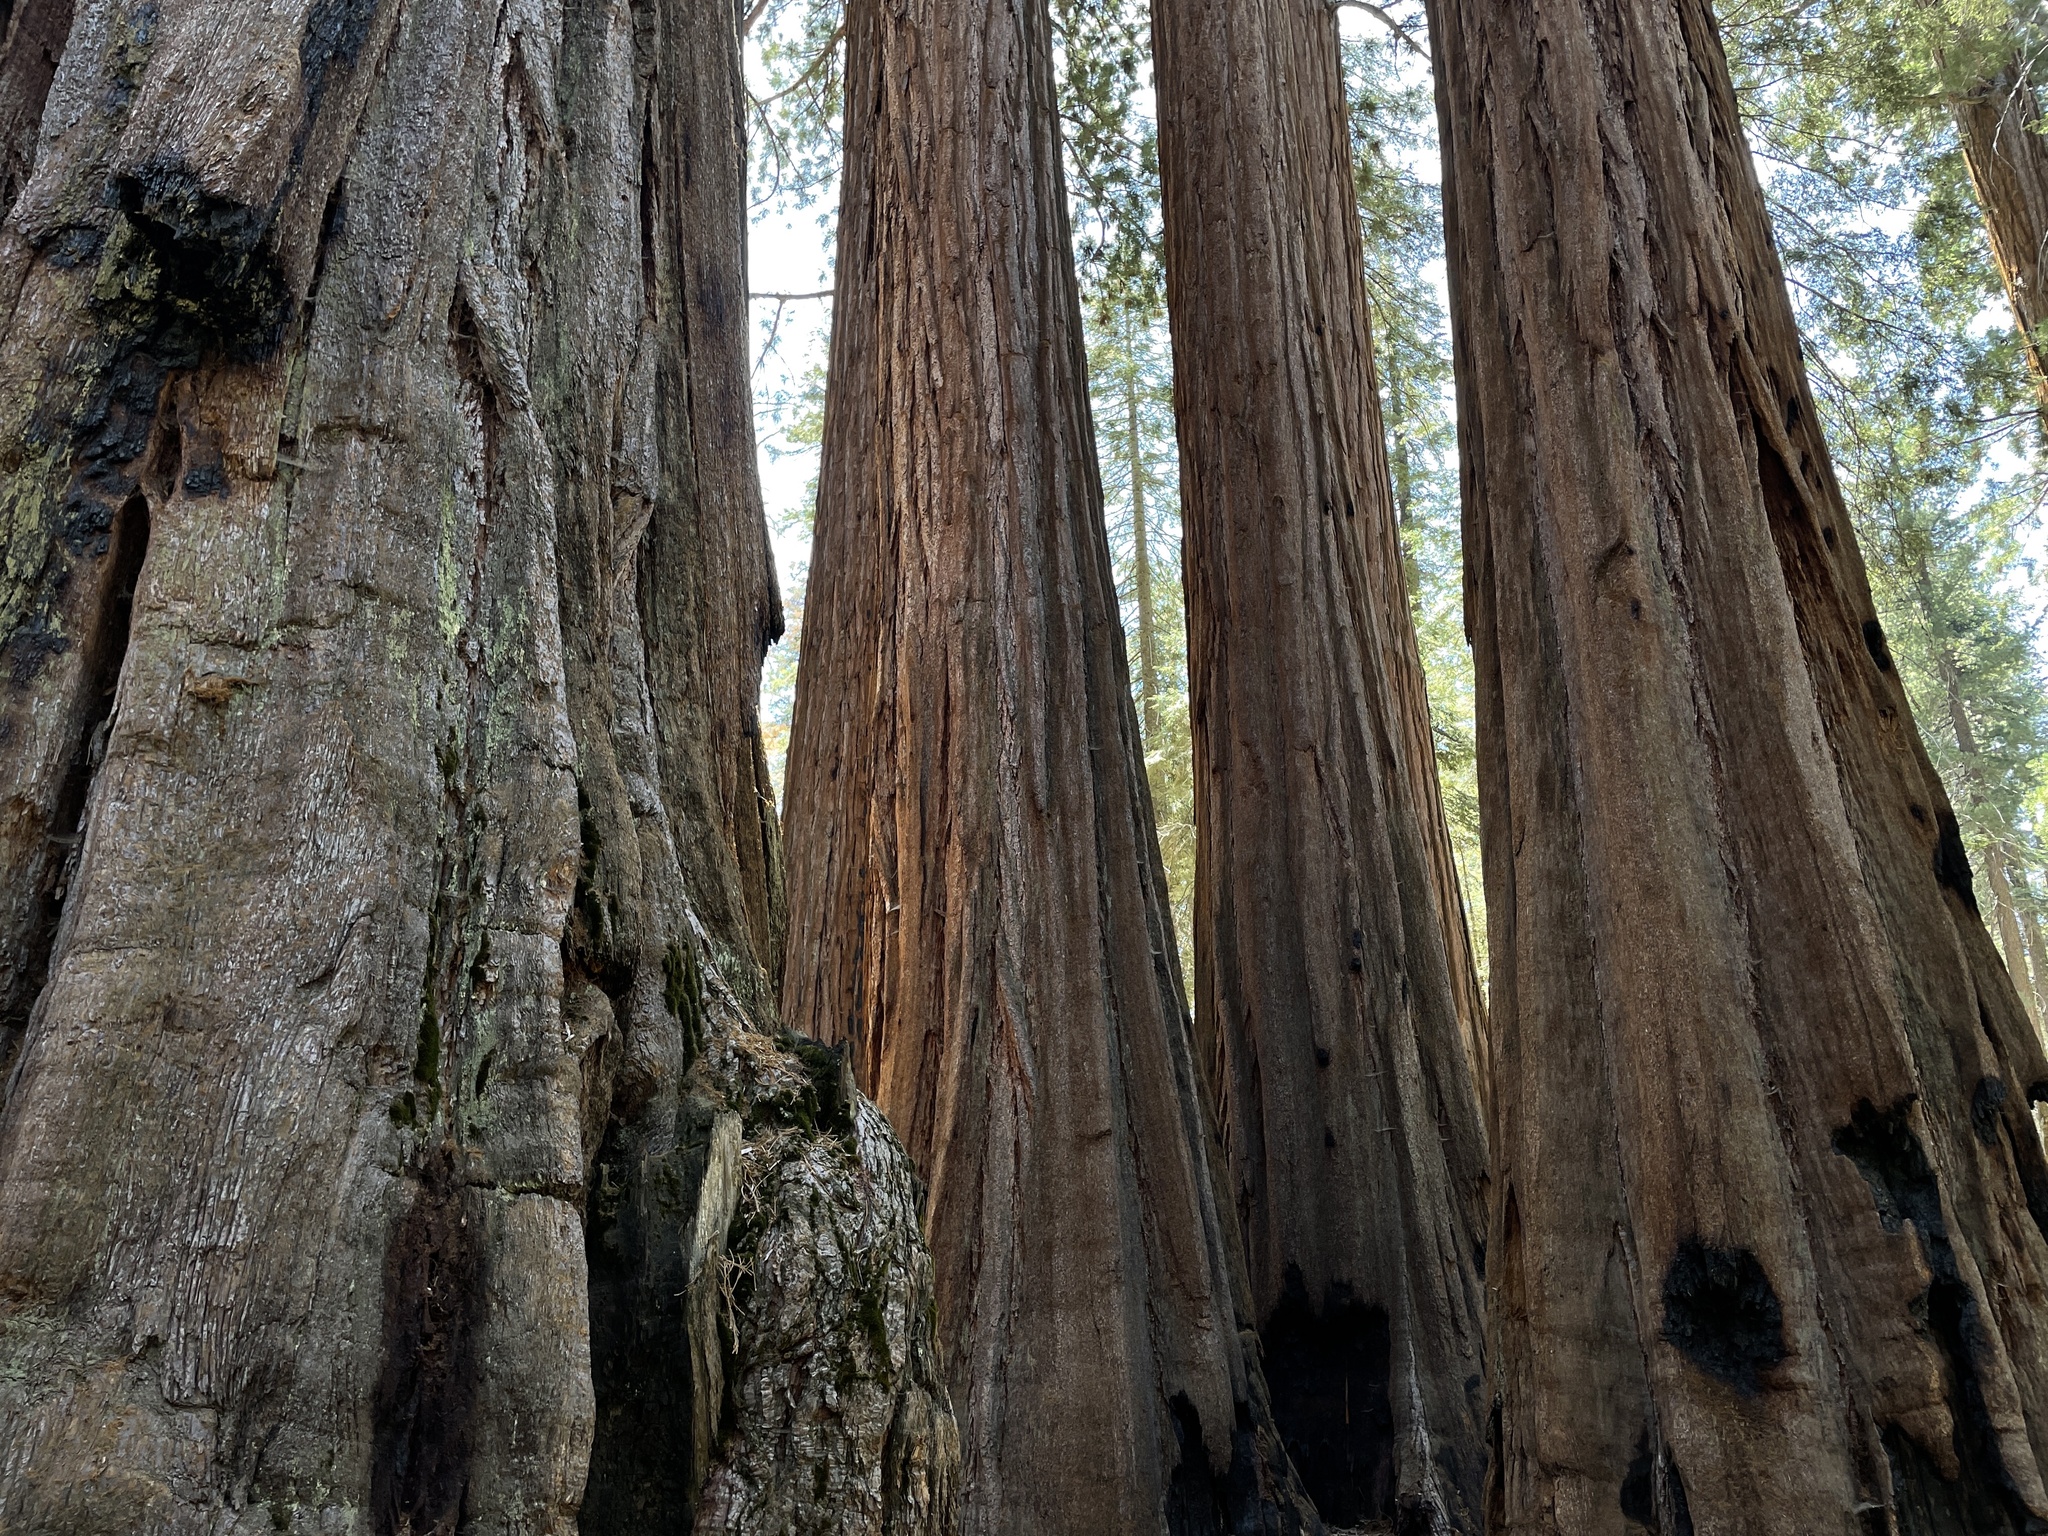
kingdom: Plantae
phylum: Tracheophyta
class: Pinopsida
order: Pinales
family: Cupressaceae
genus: Sequoiadendron
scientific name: Sequoiadendron giganteum
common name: Wellingtonia
